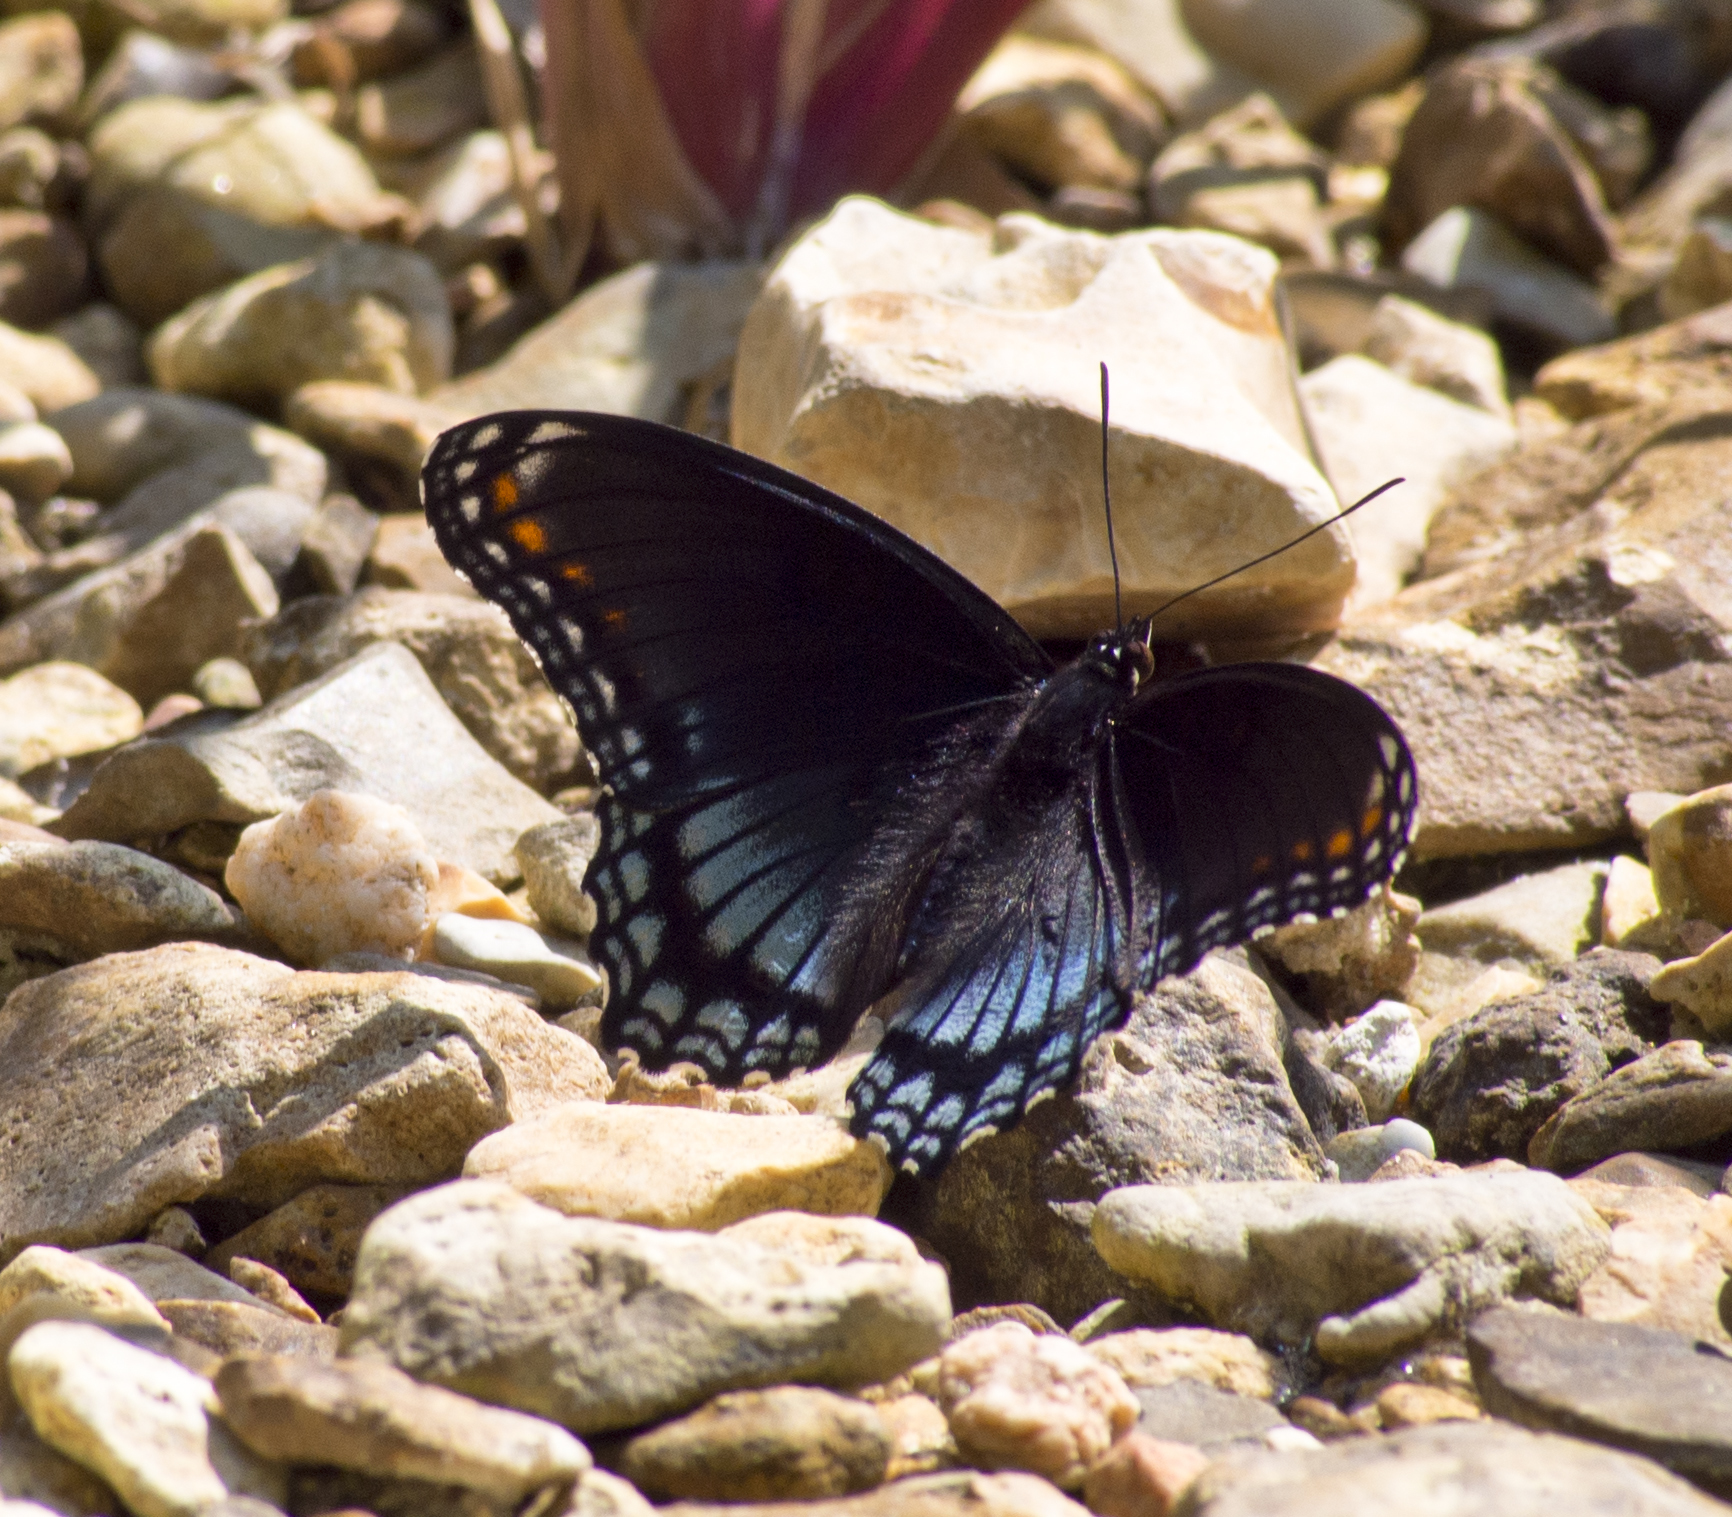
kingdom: Animalia
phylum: Arthropoda
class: Insecta
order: Lepidoptera
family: Nymphalidae
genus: Limenitis
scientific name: Limenitis astyanax
